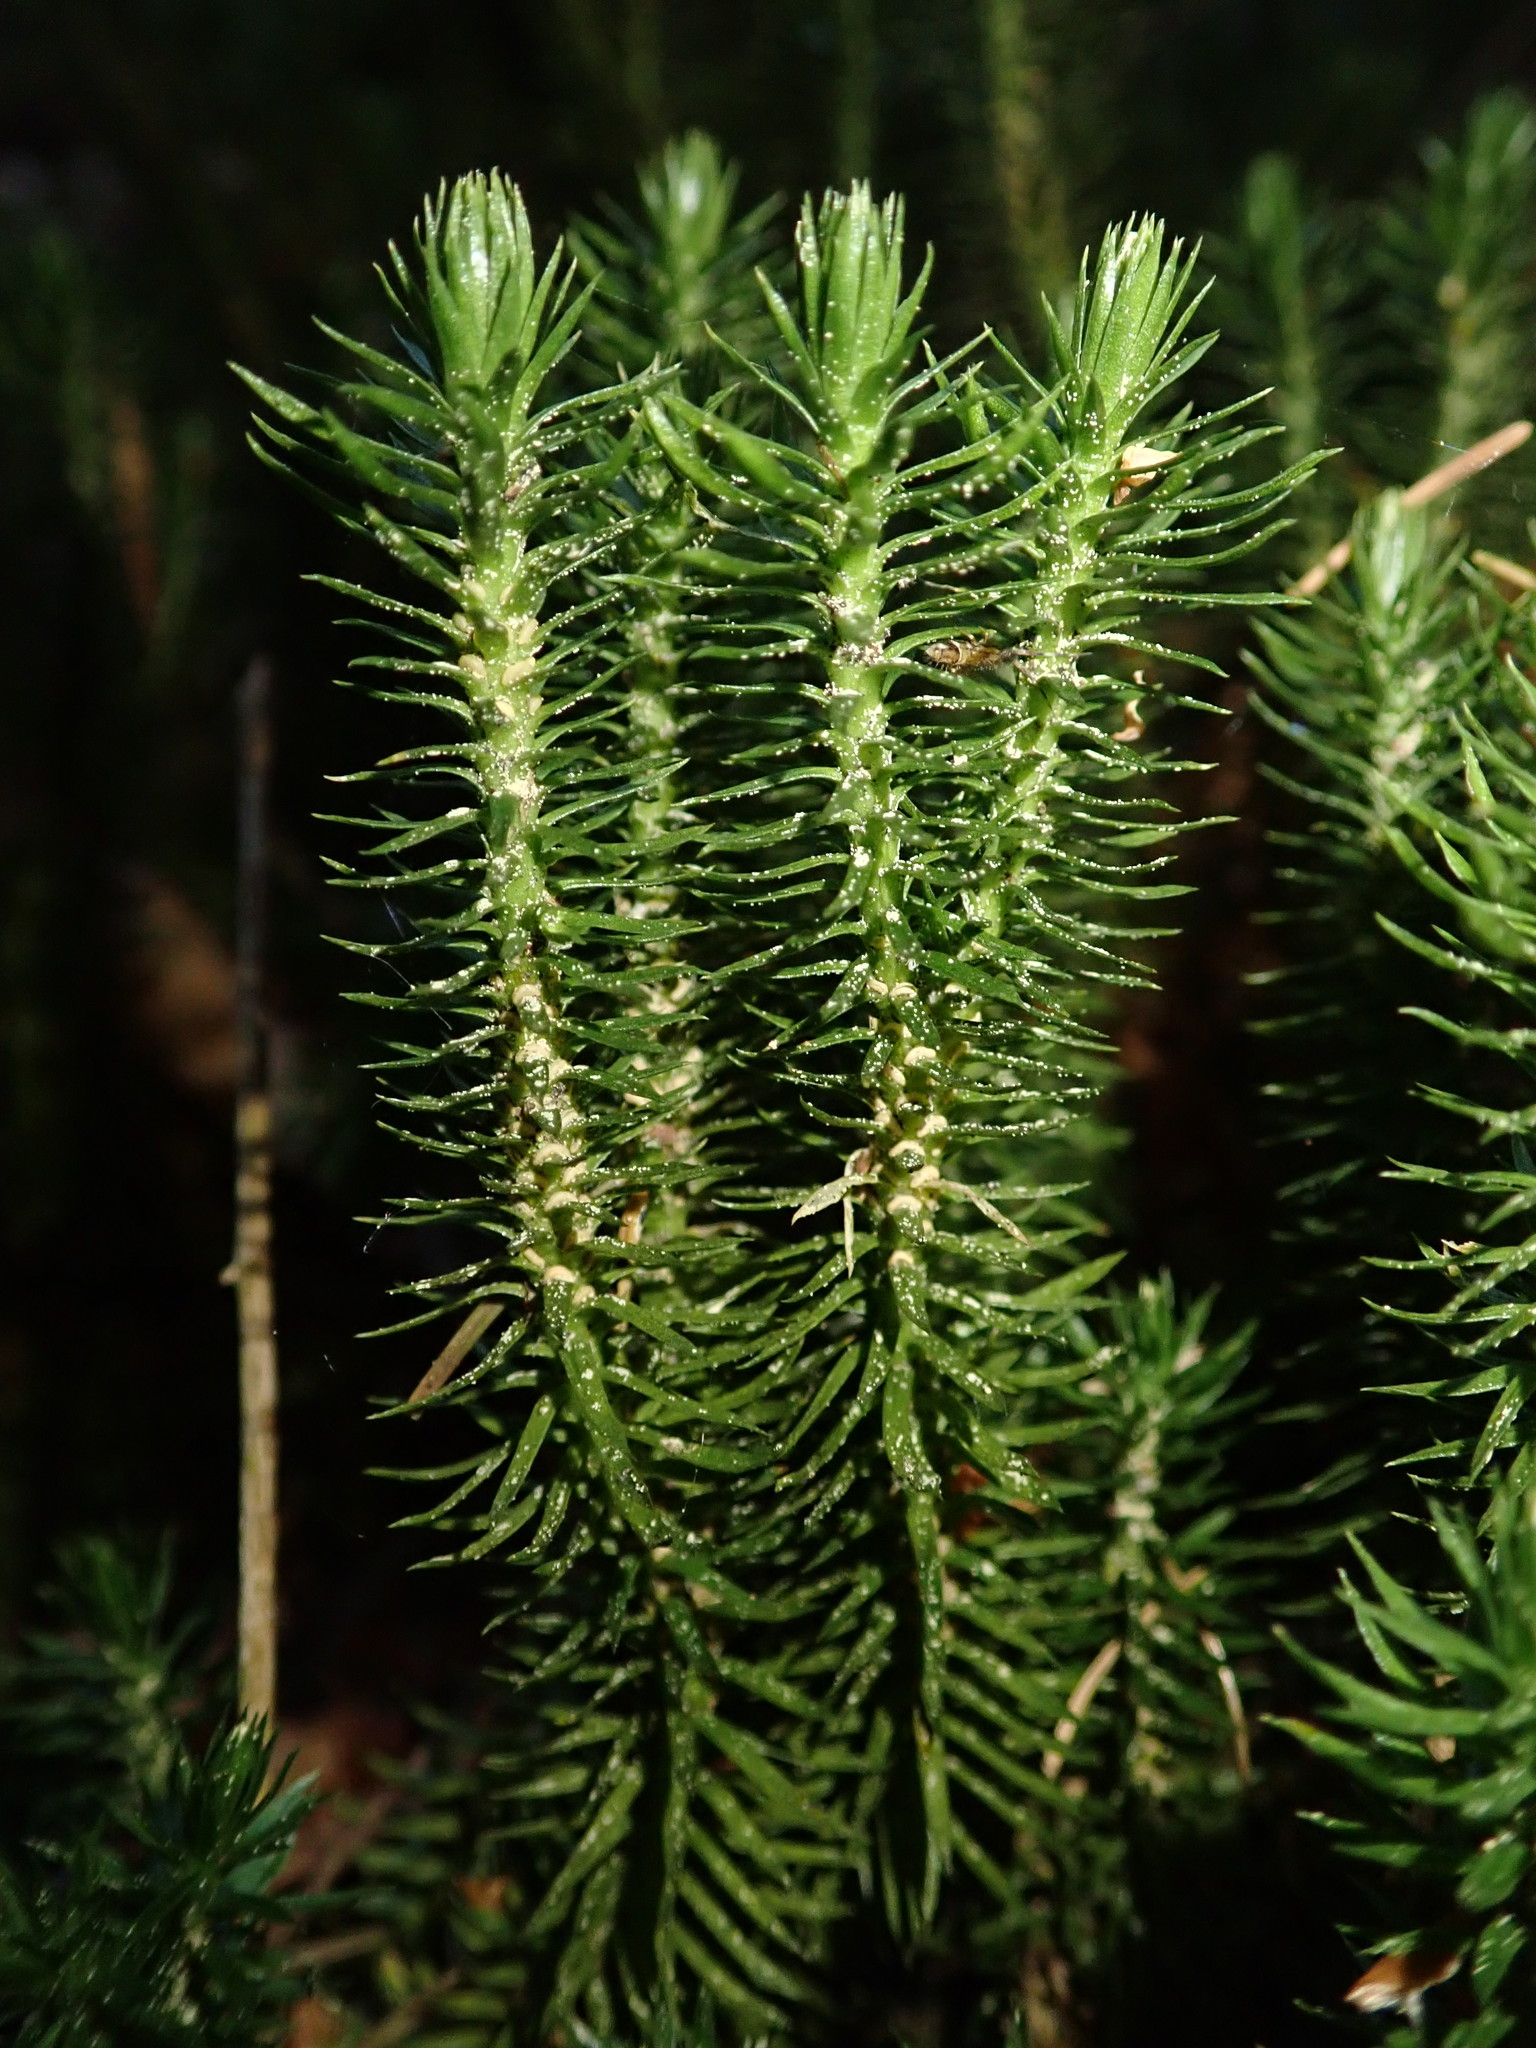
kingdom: Plantae
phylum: Tracheophyta
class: Lycopodiopsida
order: Lycopodiales
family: Lycopodiaceae
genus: Huperzia
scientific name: Huperzia selago
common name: Northern firmoss
